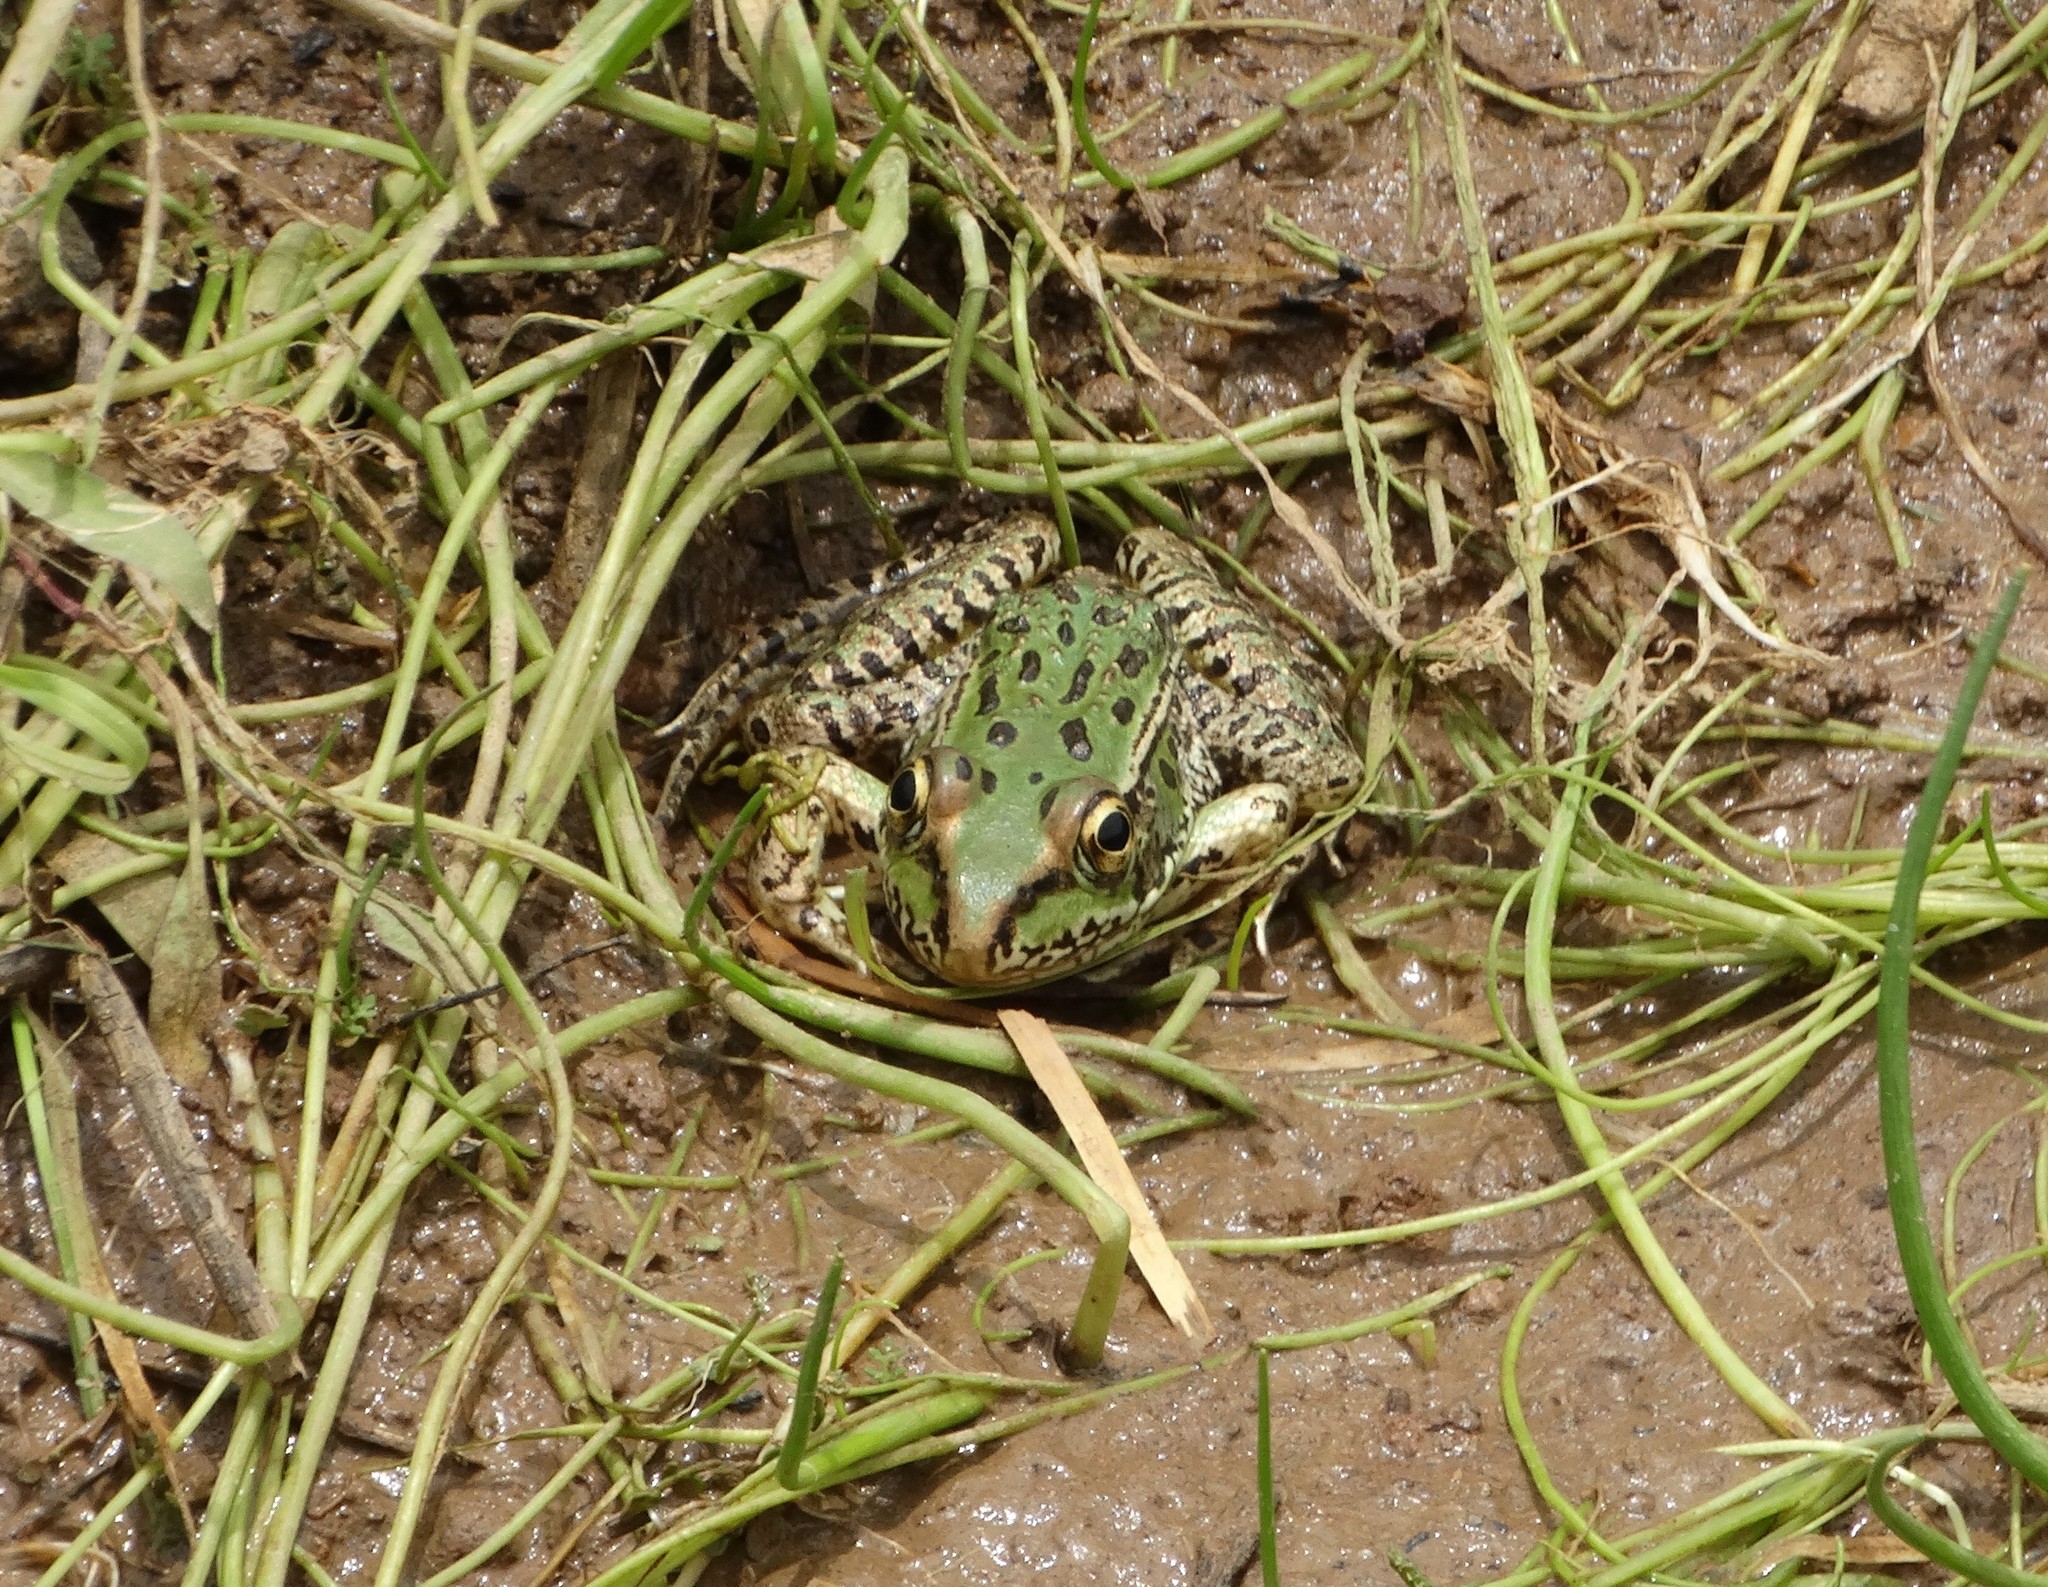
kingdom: Animalia
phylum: Chordata
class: Amphibia
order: Anura
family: Ranidae
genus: Lithobates
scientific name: Lithobates spectabilis
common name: Showy leopard frog
